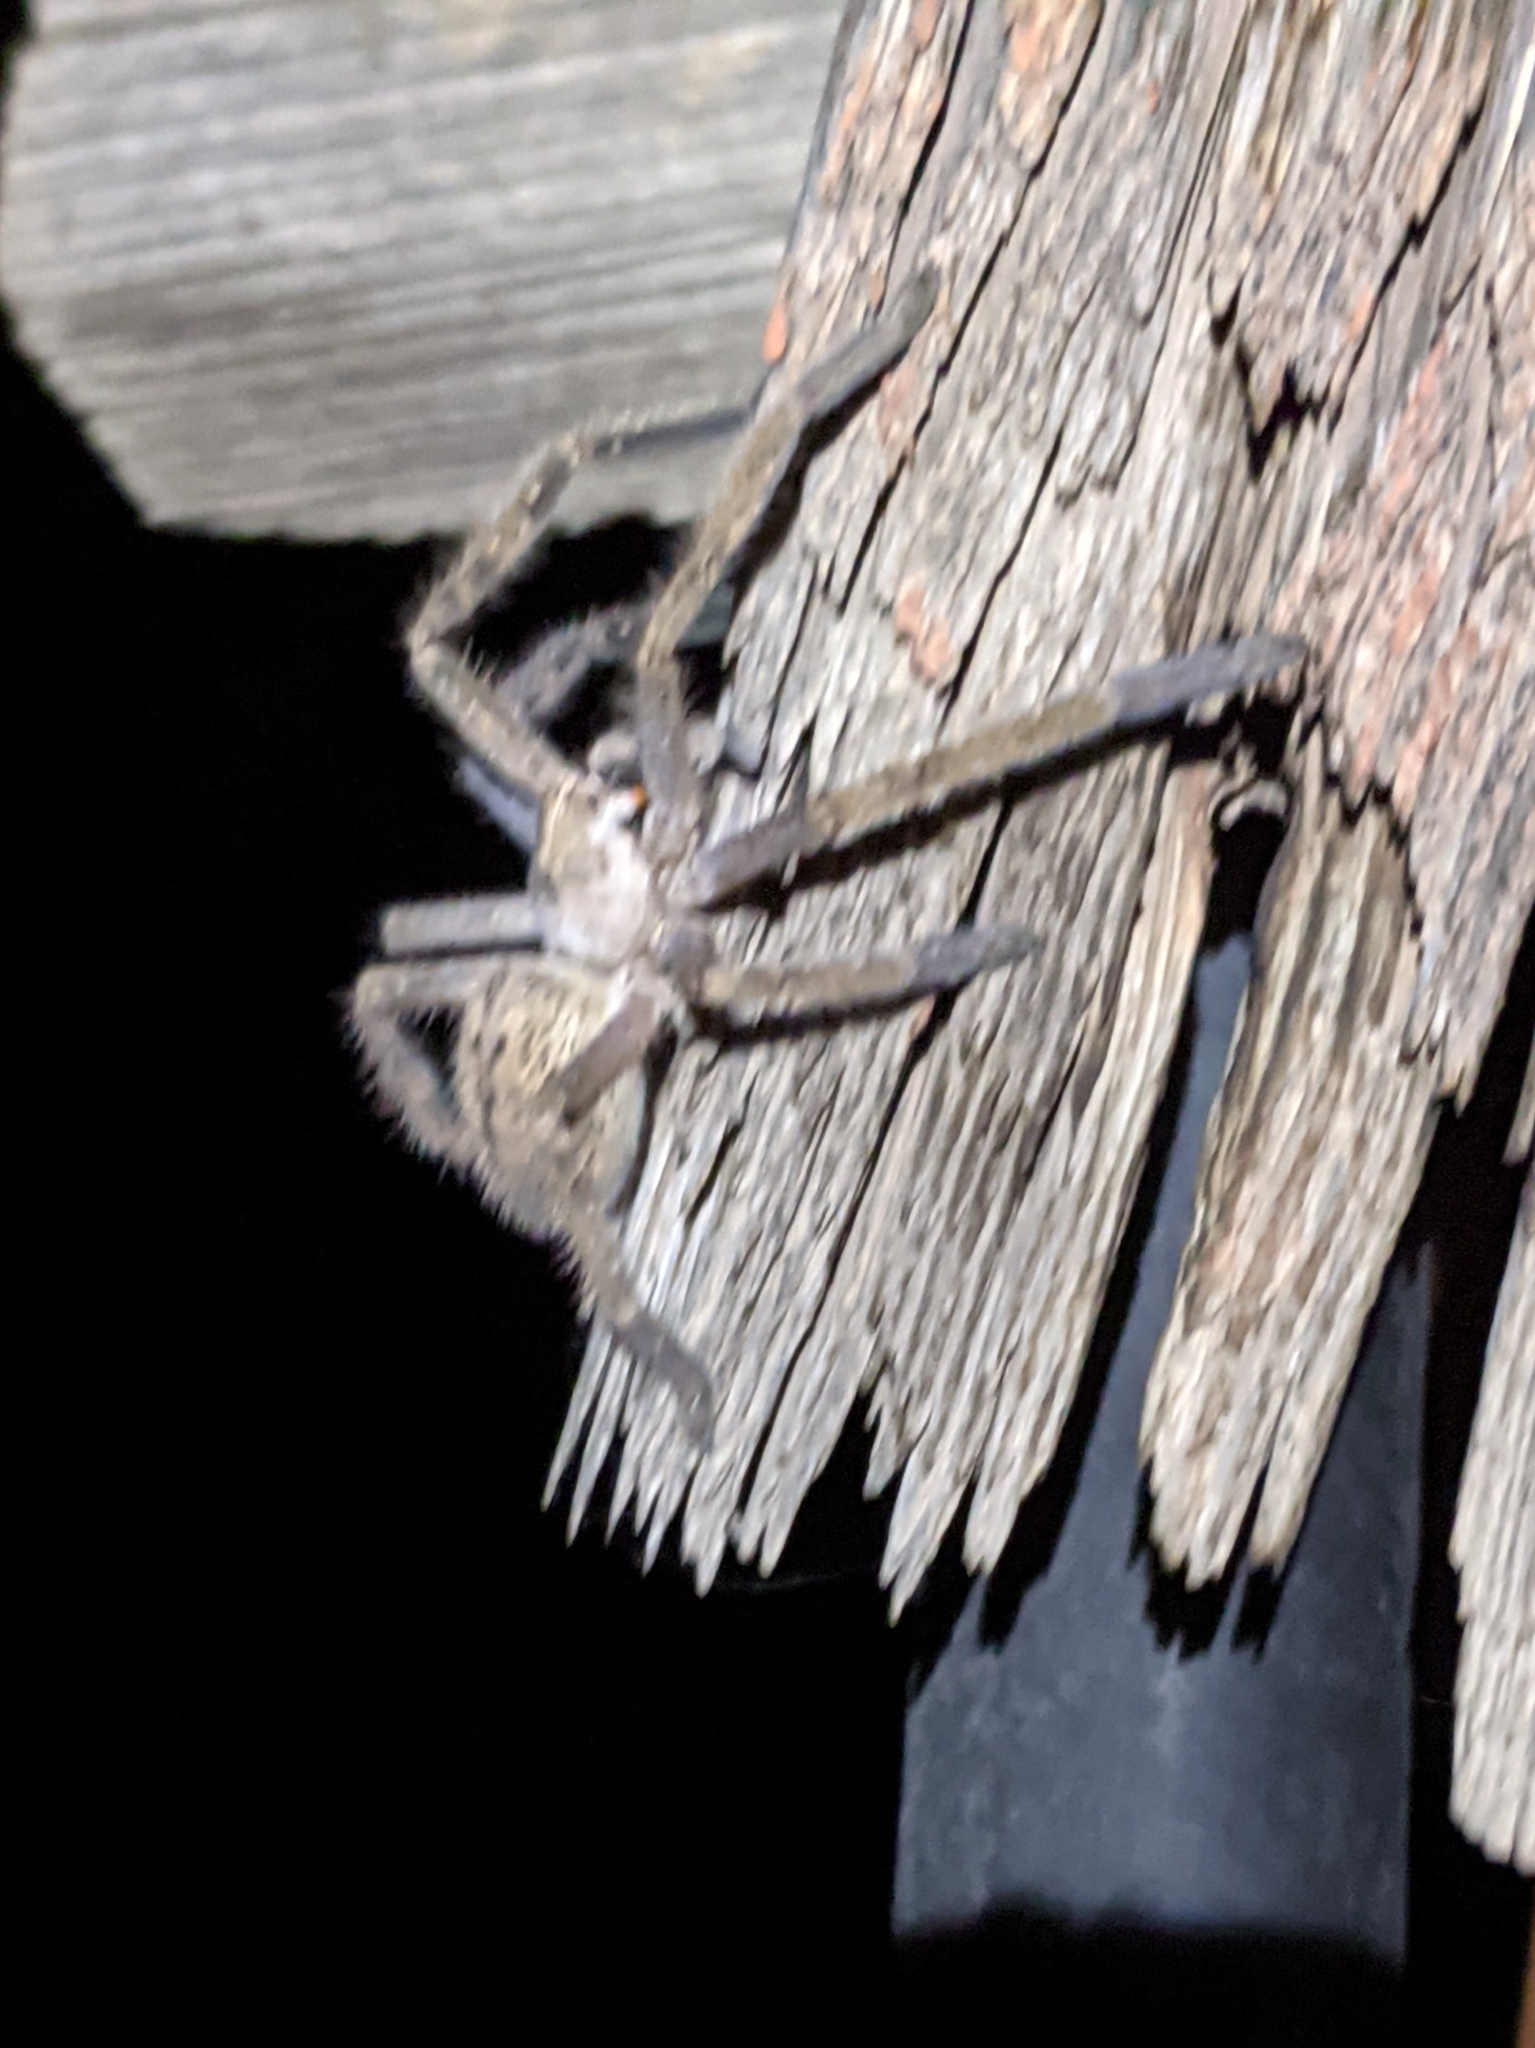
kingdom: Animalia
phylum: Arthropoda
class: Arachnida
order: Araneae
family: Sparassidae
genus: Olios
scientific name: Olios giganteus
